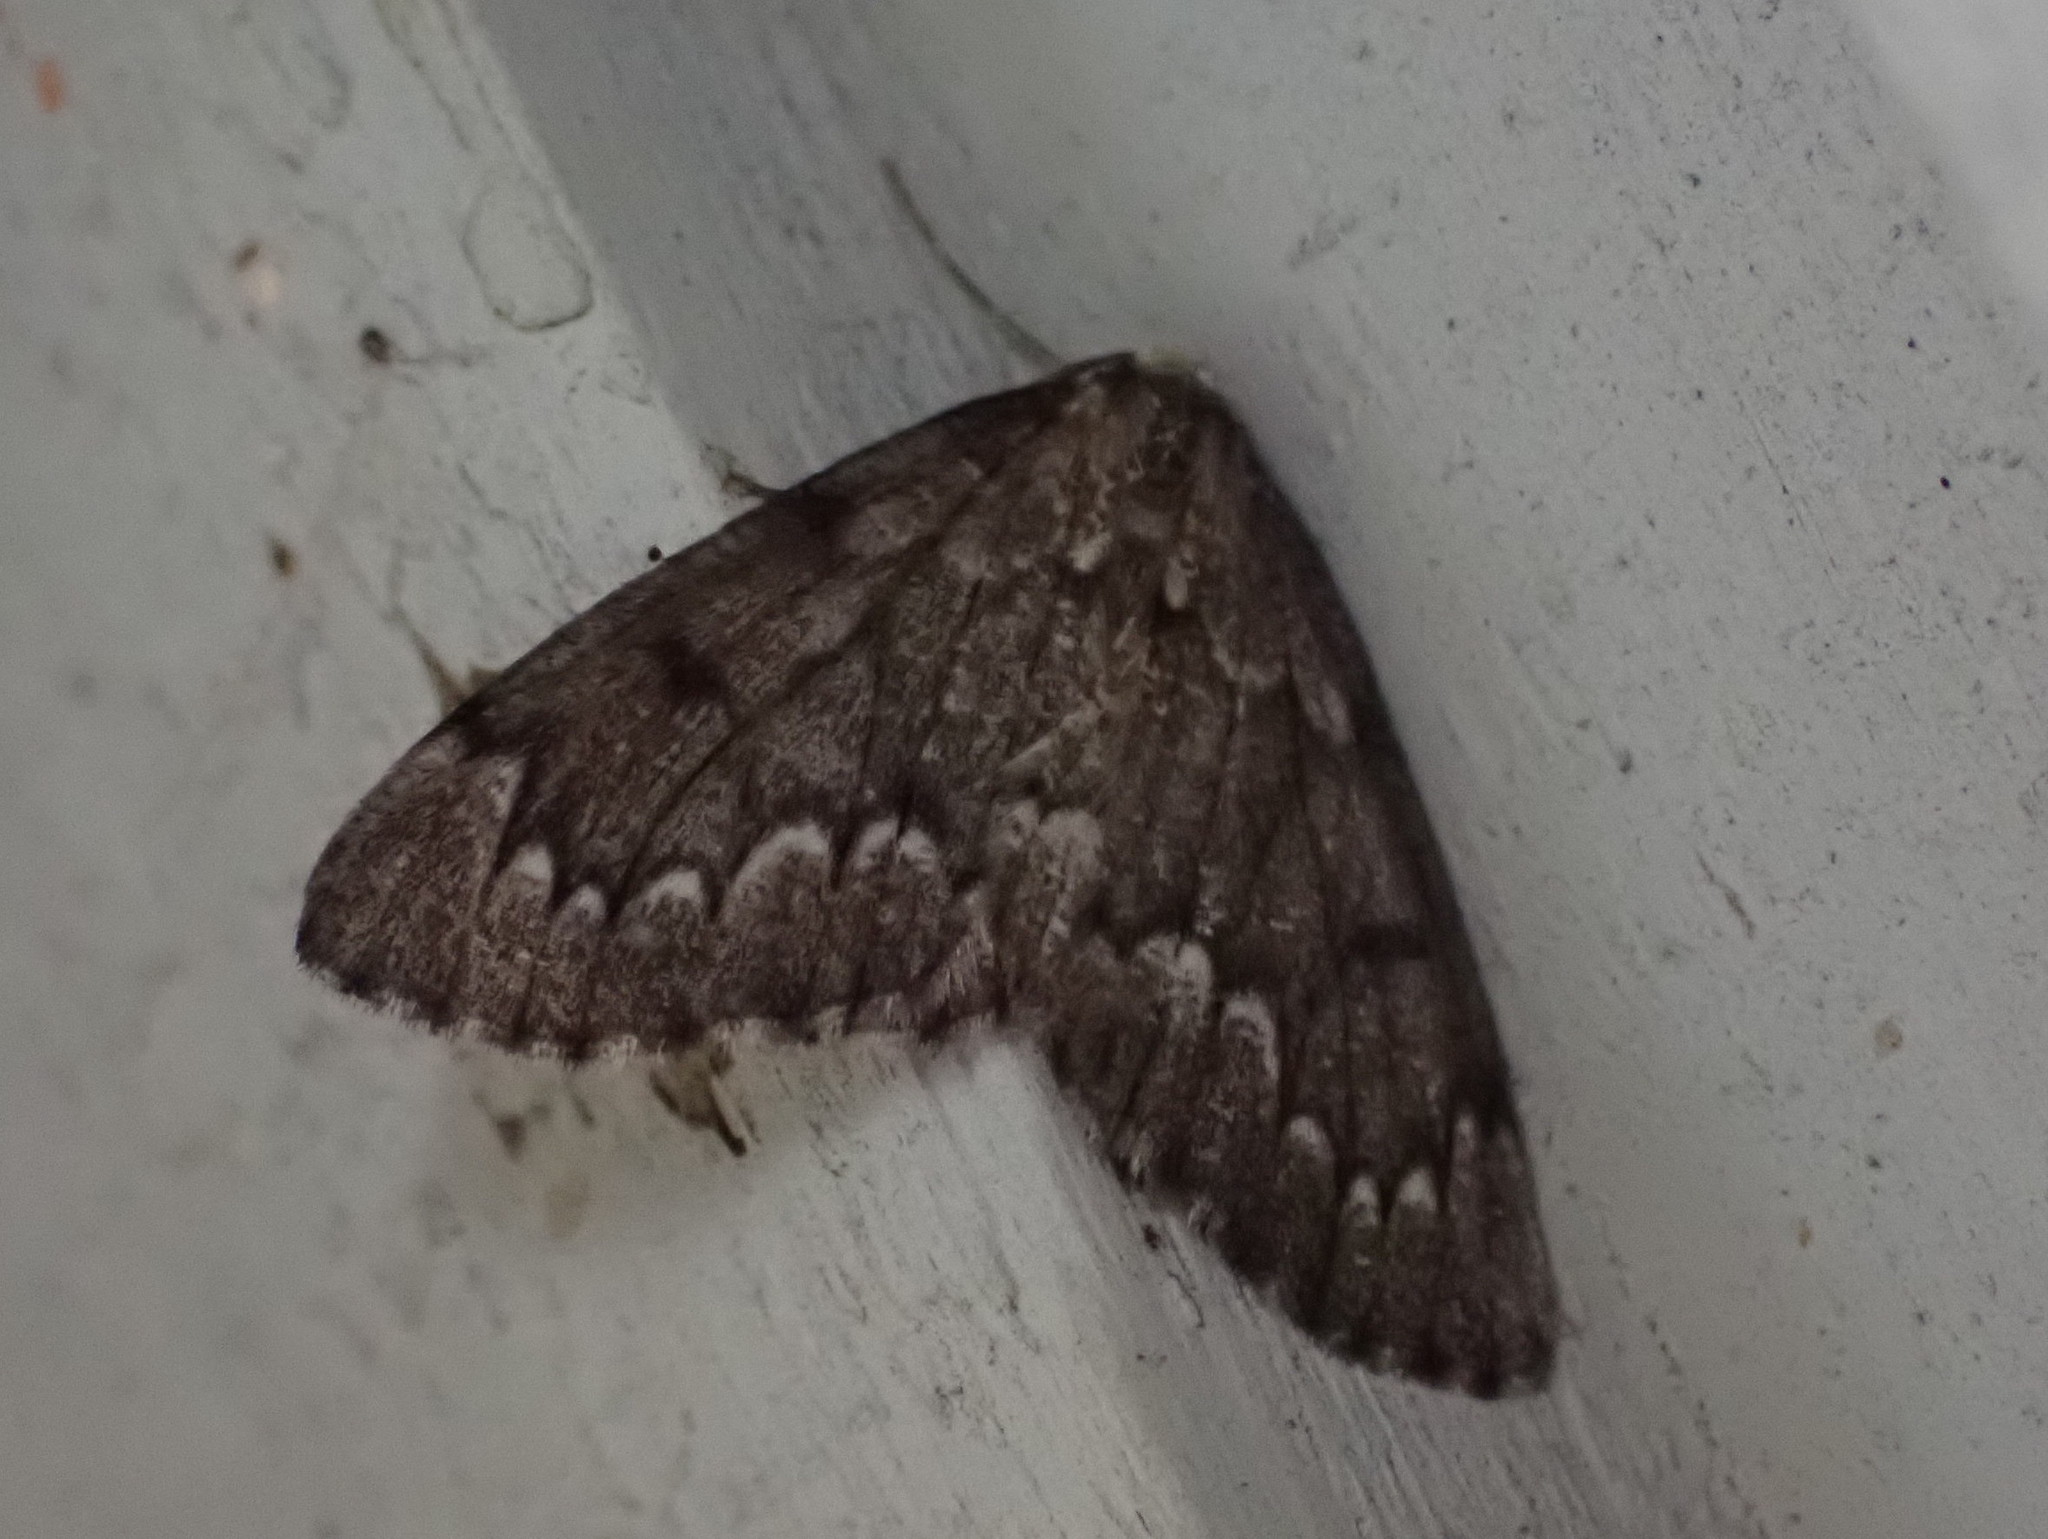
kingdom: Animalia
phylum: Arthropoda
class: Insecta
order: Lepidoptera
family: Geometridae
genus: Nepytia
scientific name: Nepytia canosaria
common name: False hemlock looper
